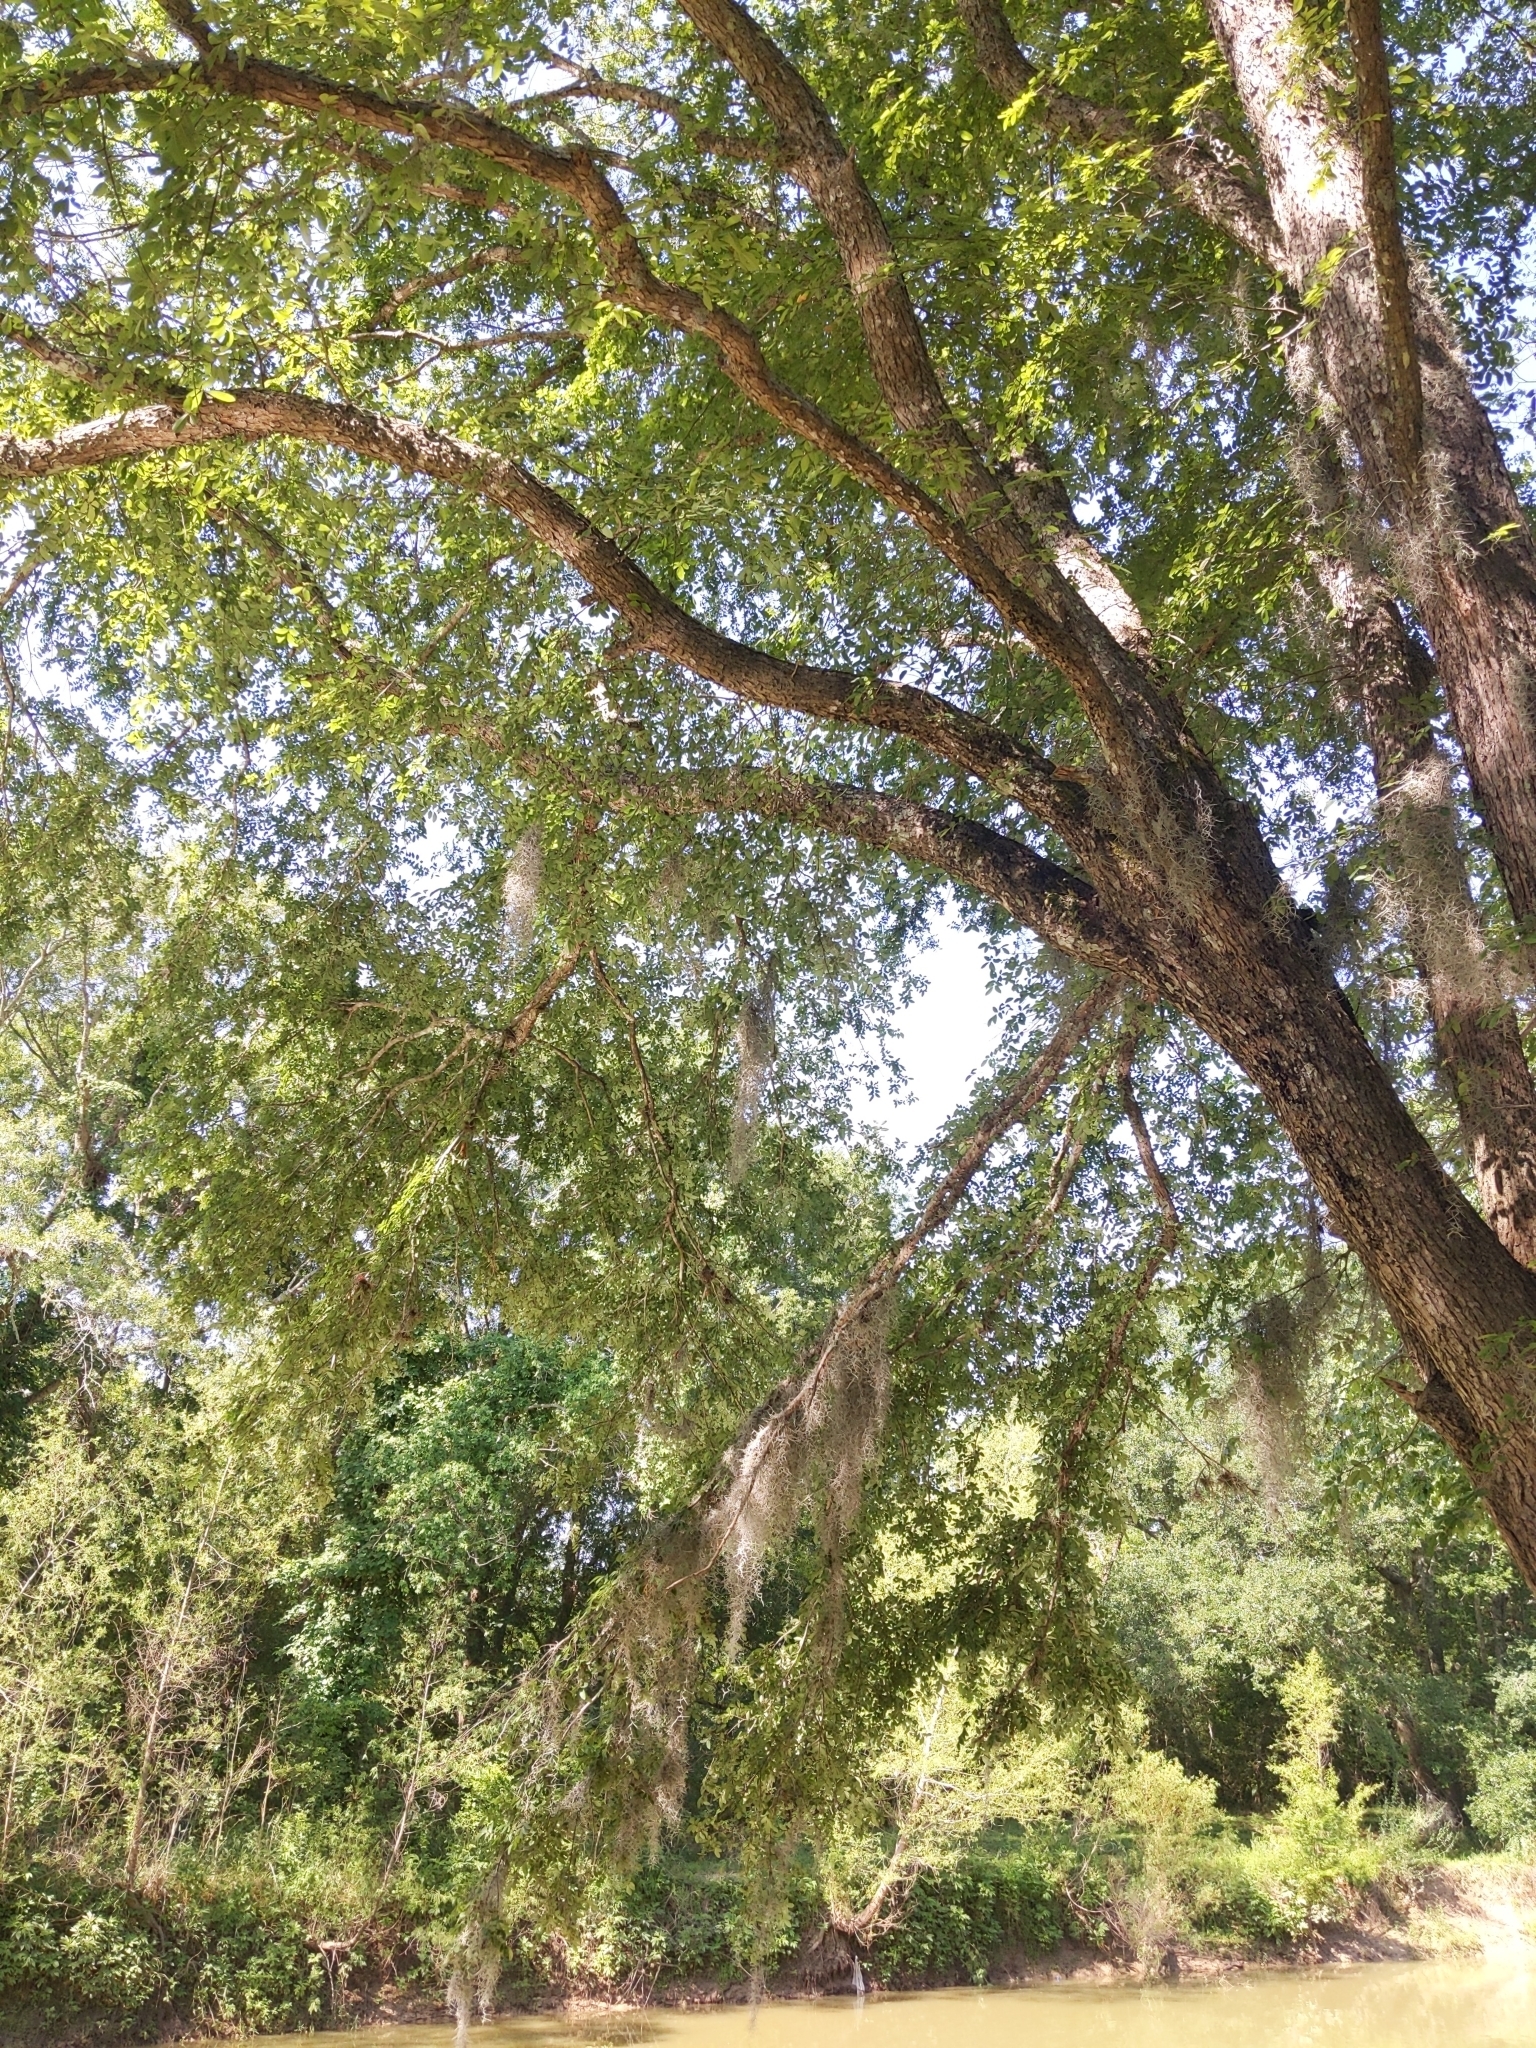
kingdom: Plantae
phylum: Tracheophyta
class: Liliopsida
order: Poales
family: Bromeliaceae
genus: Tillandsia
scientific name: Tillandsia usneoides
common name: Spanish moss
